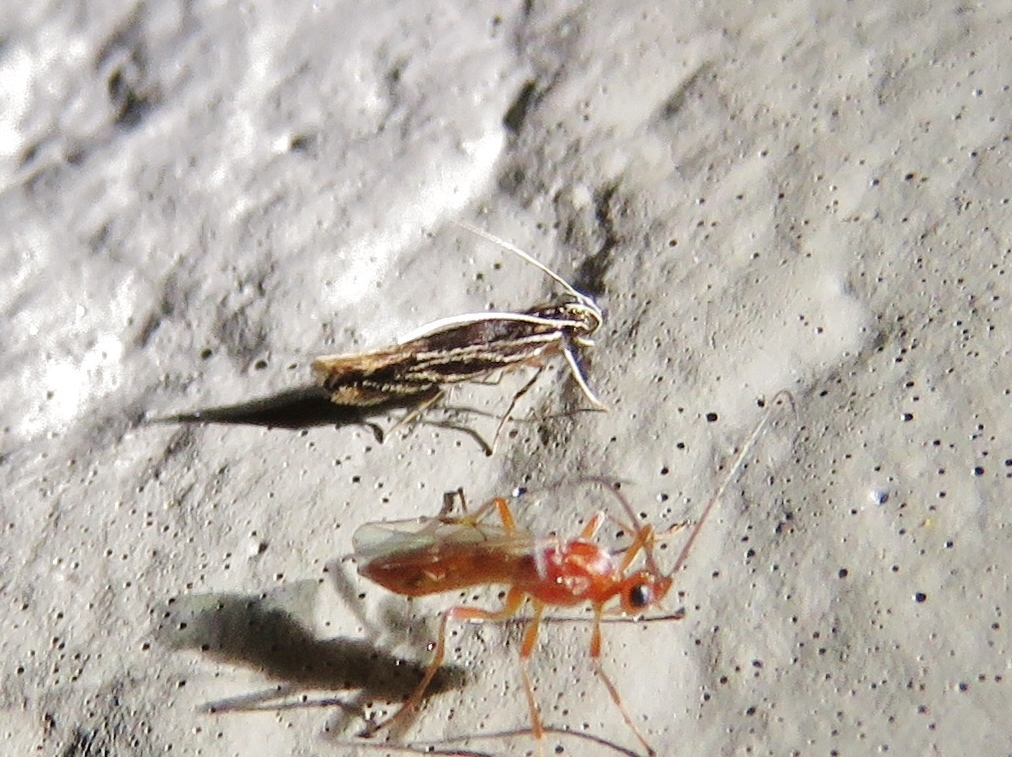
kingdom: Animalia
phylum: Arthropoda
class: Insecta
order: Lepidoptera
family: Cosmopterigidae
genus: Eralea
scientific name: Eralea albalineella
